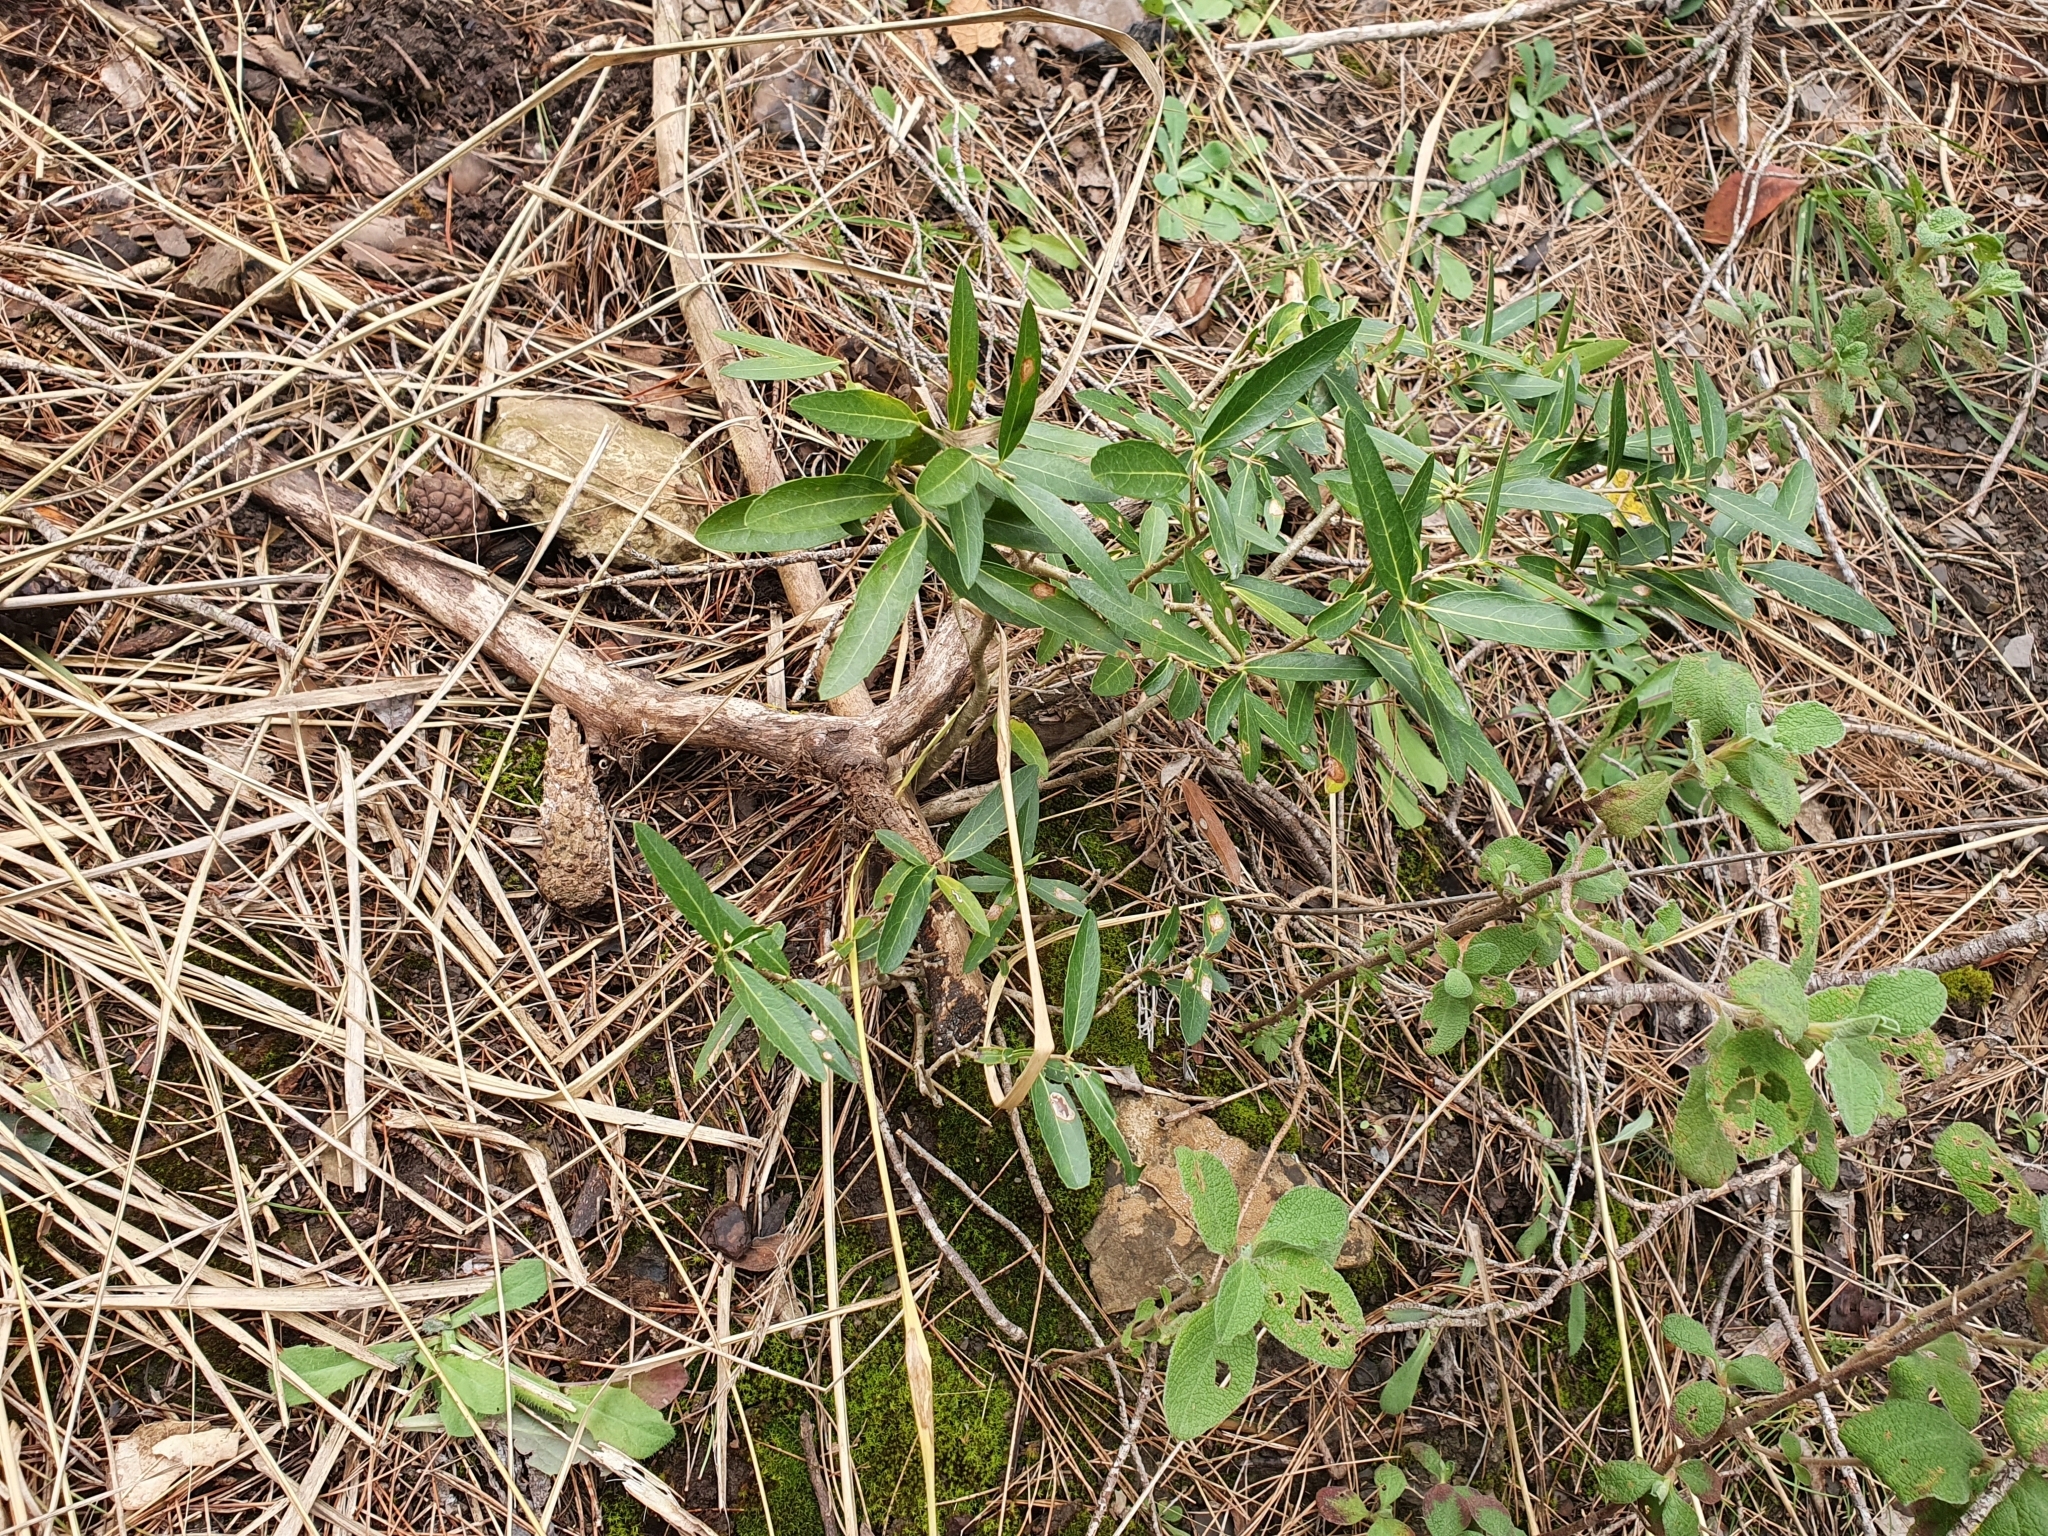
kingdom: Plantae
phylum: Tracheophyta
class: Magnoliopsida
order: Lamiales
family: Oleaceae
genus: Phillyrea
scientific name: Phillyrea latifolia
